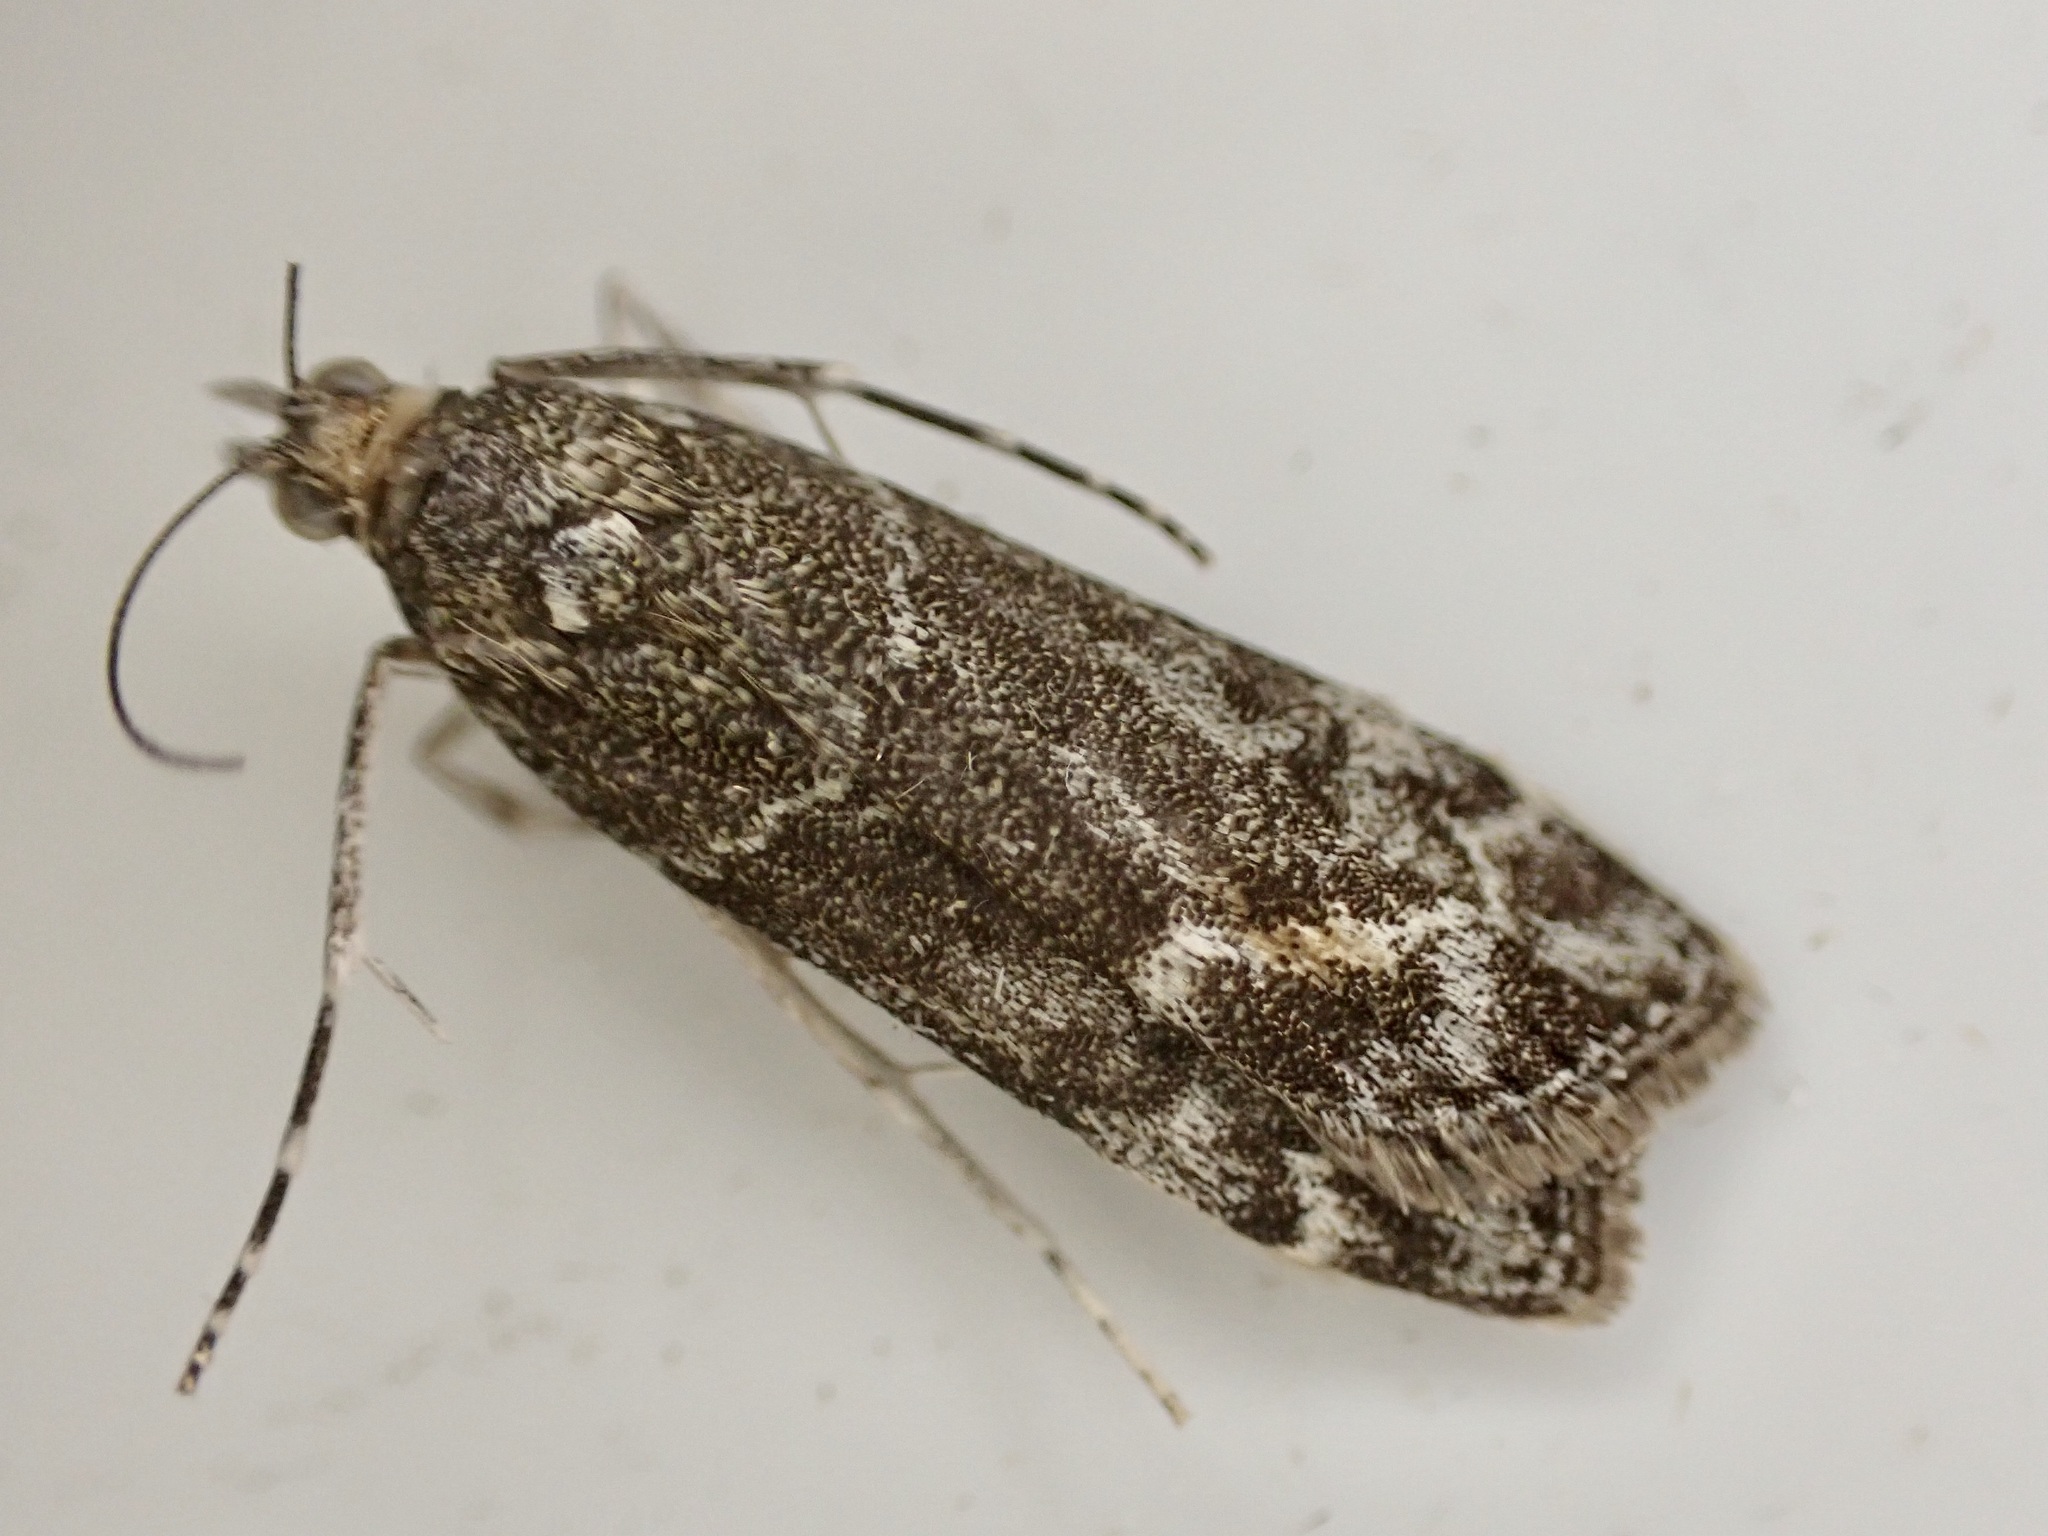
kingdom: Animalia
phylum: Arthropoda
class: Insecta
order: Lepidoptera
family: Crambidae
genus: Eudonia
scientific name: Eudonia submarginalis
